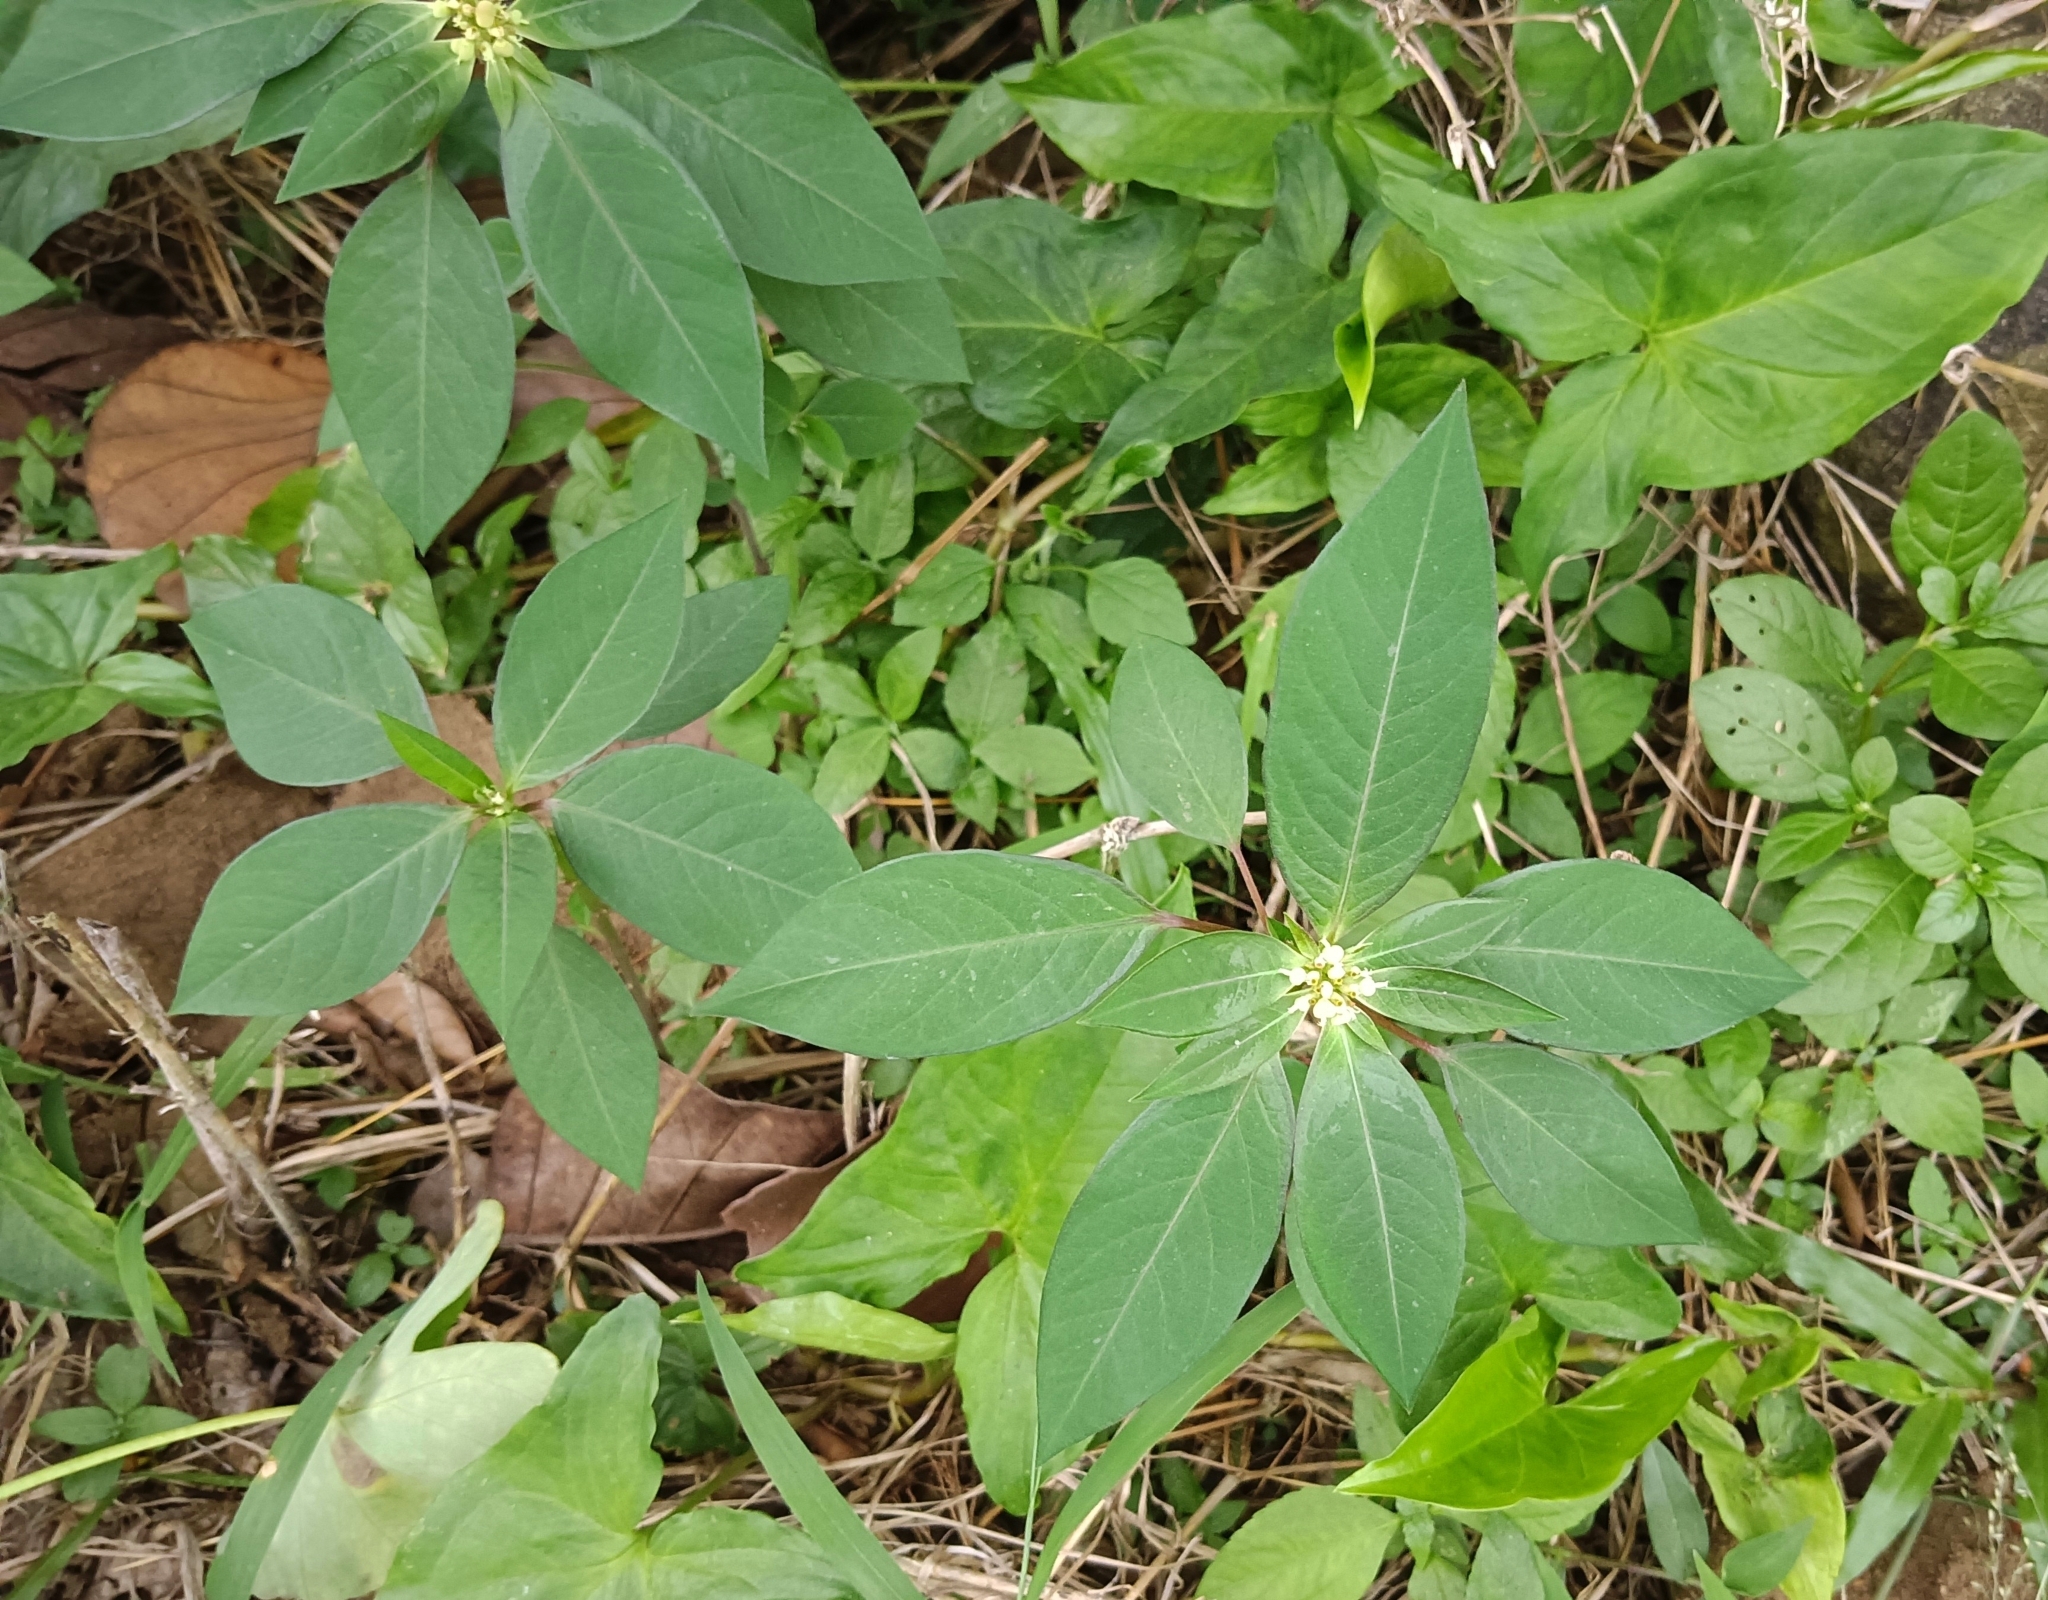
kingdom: Plantae
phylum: Tracheophyta
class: Magnoliopsida
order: Malpighiales
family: Euphorbiaceae
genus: Euphorbia
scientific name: Euphorbia heterophylla
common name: Mexican fireplant
